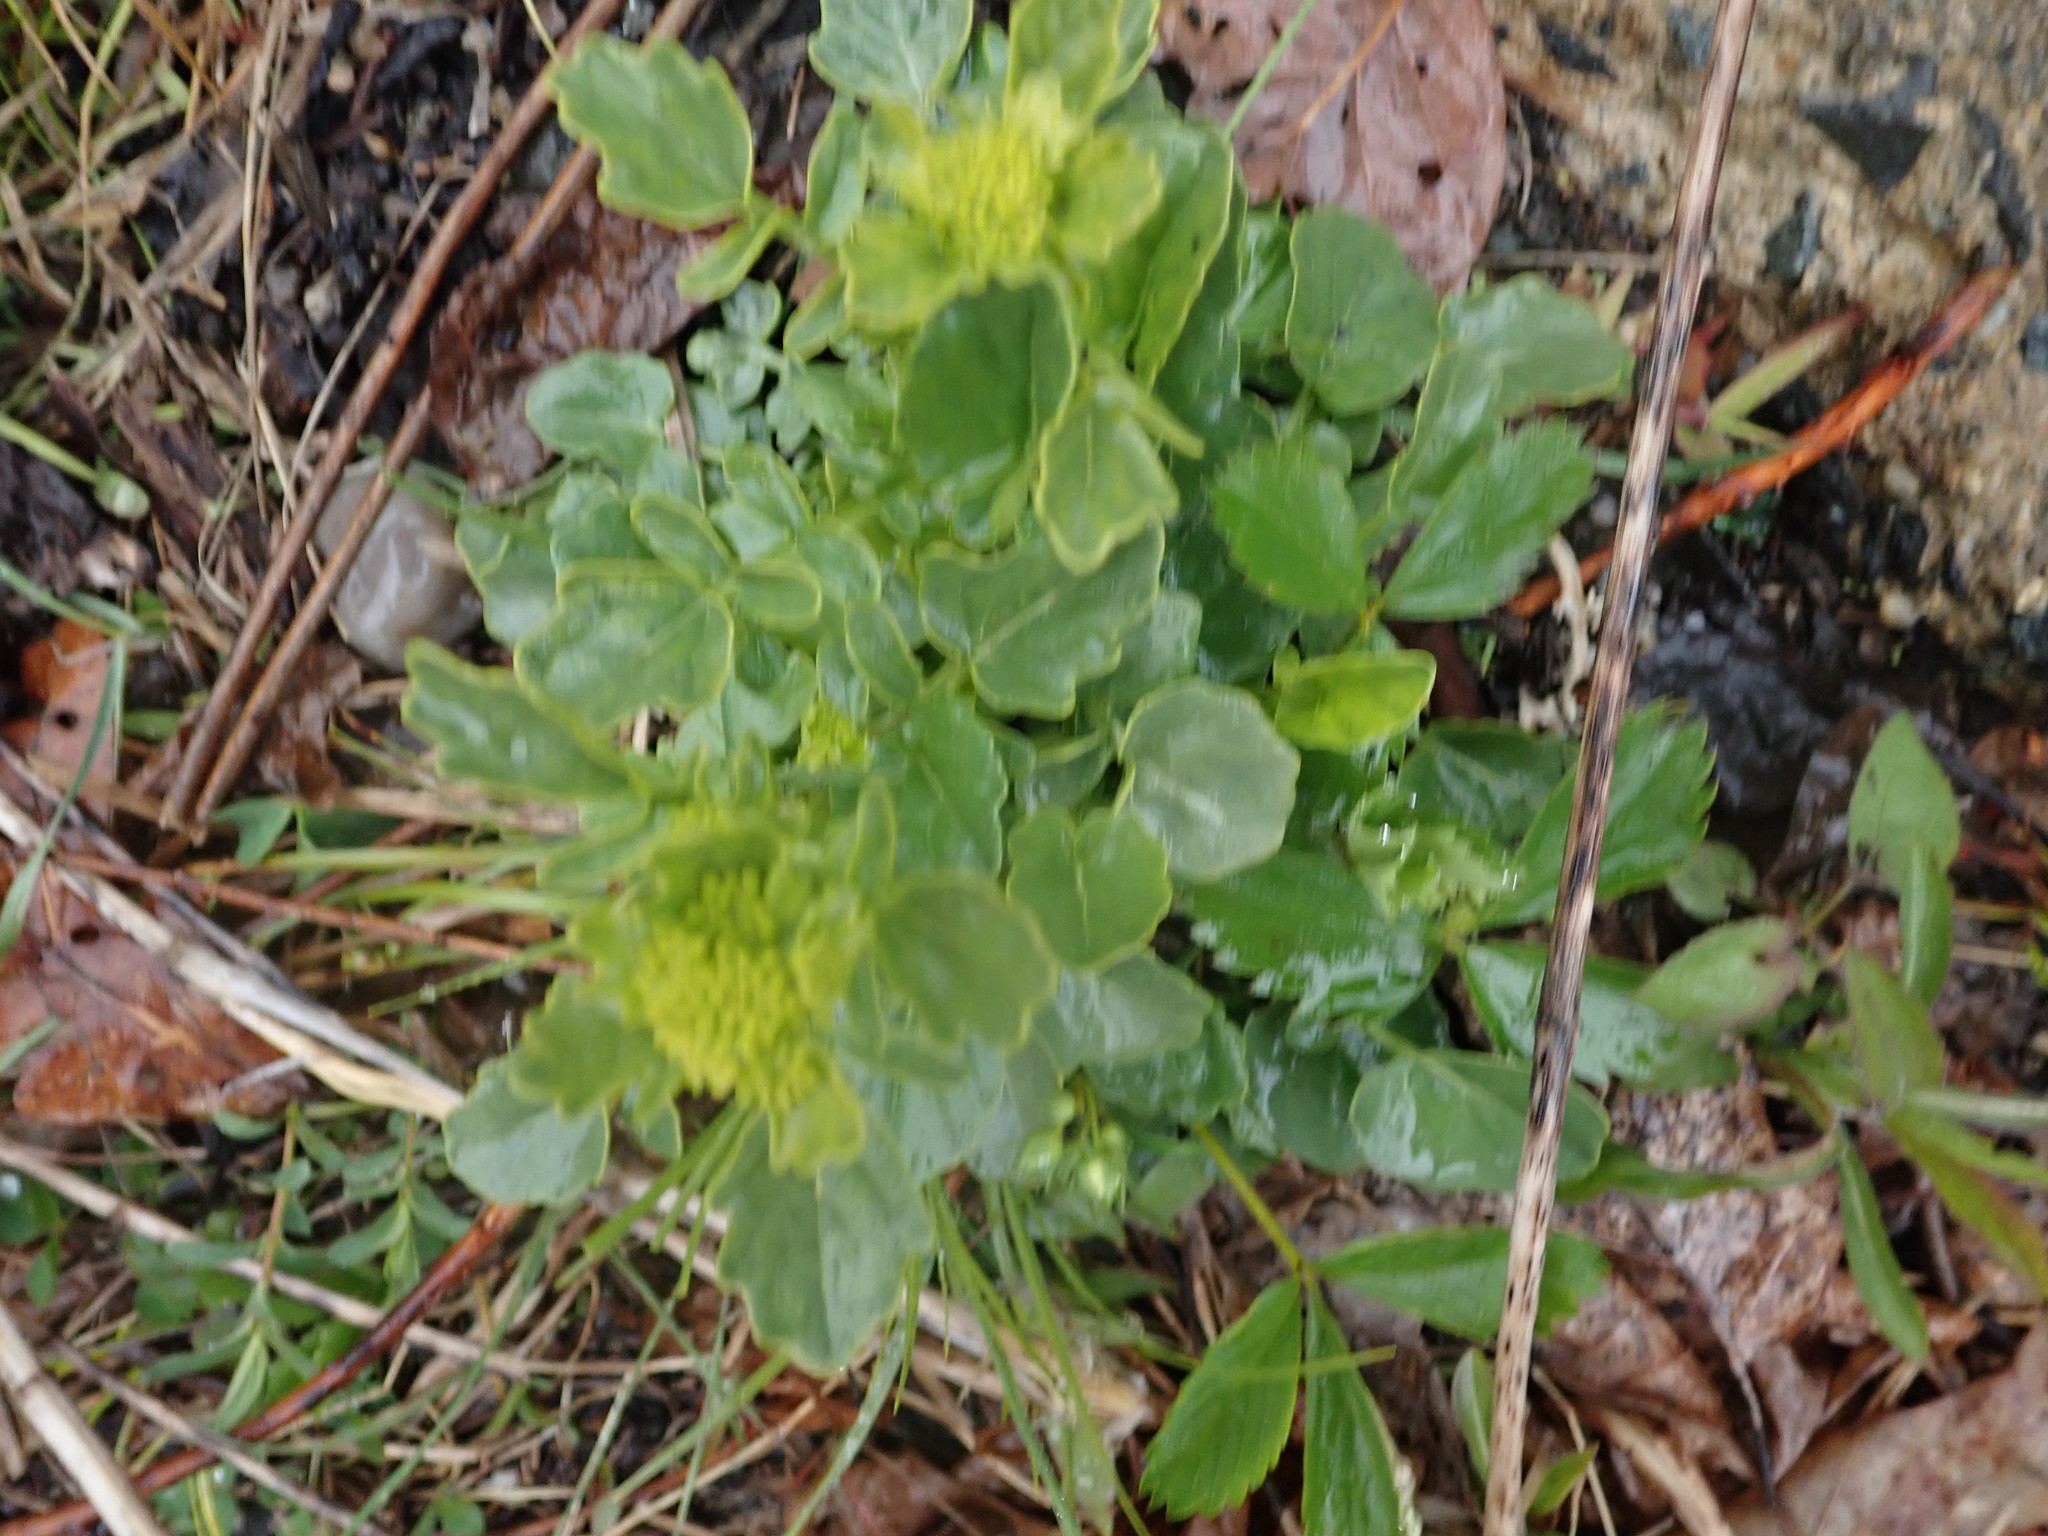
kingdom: Plantae
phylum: Tracheophyta
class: Magnoliopsida
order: Brassicales
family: Brassicaceae
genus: Barbarea
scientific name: Barbarea vulgaris
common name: Cressy-greens
